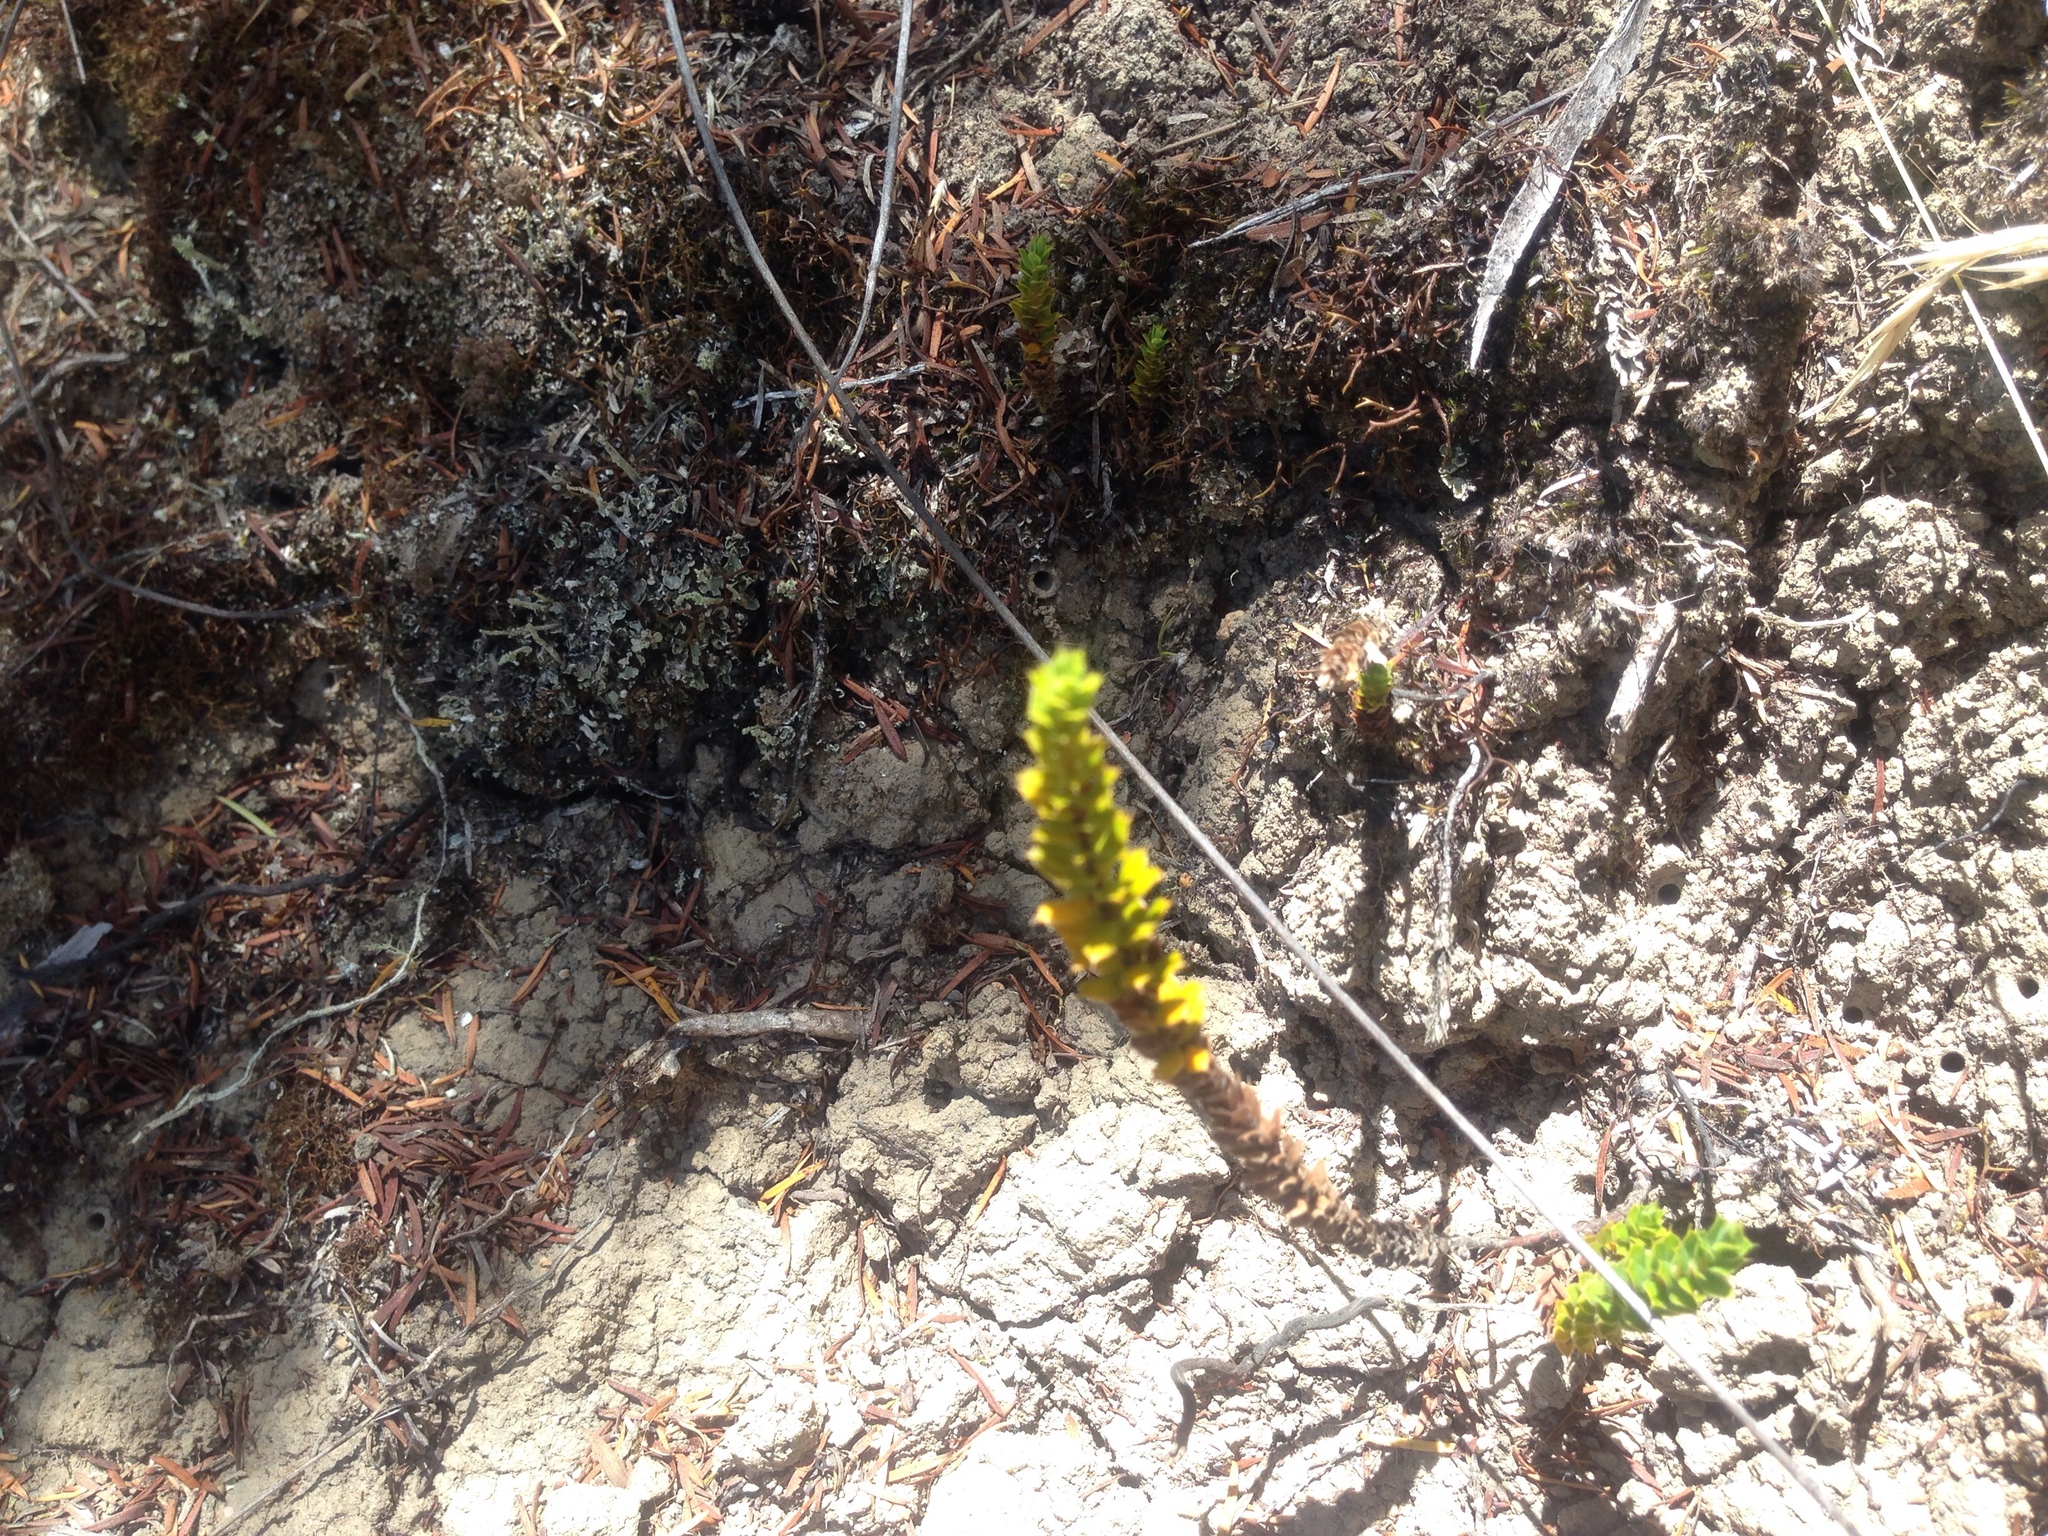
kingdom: Plantae
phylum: Tracheophyta
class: Magnoliopsida
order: Ericales
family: Ericaceae
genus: Styphelia
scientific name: Styphelia nesophila
